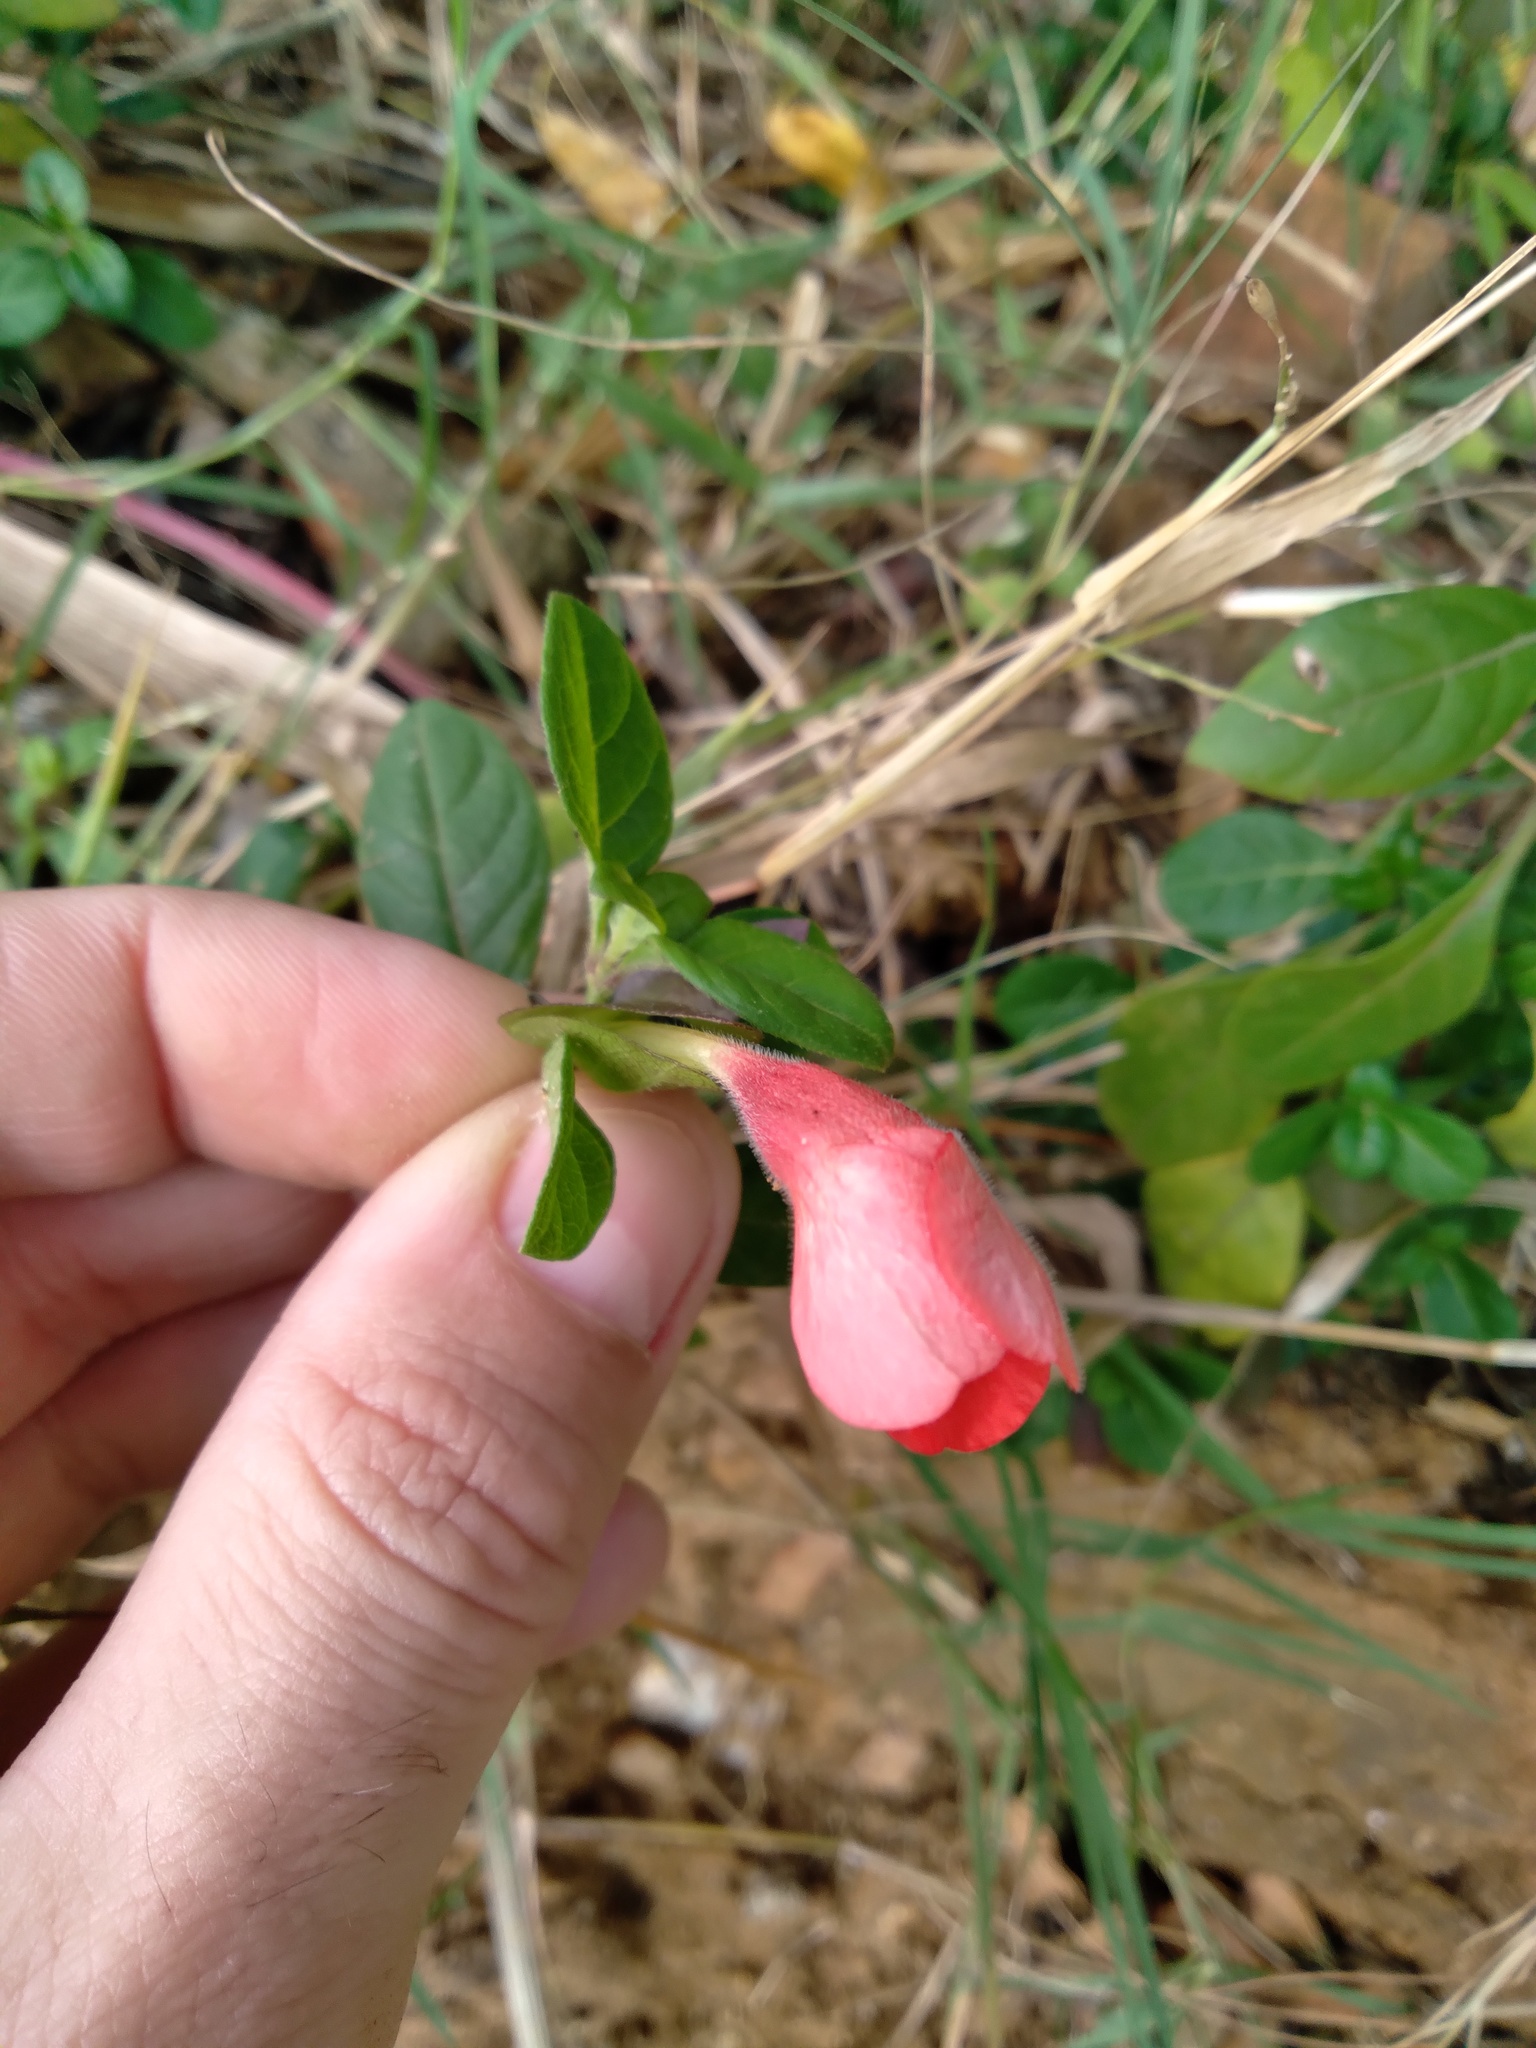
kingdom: Plantae
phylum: Tracheophyta
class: Magnoliopsida
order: Lamiales
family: Acanthaceae
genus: Barleria
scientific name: Barleria repens
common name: Pink-ruellia
